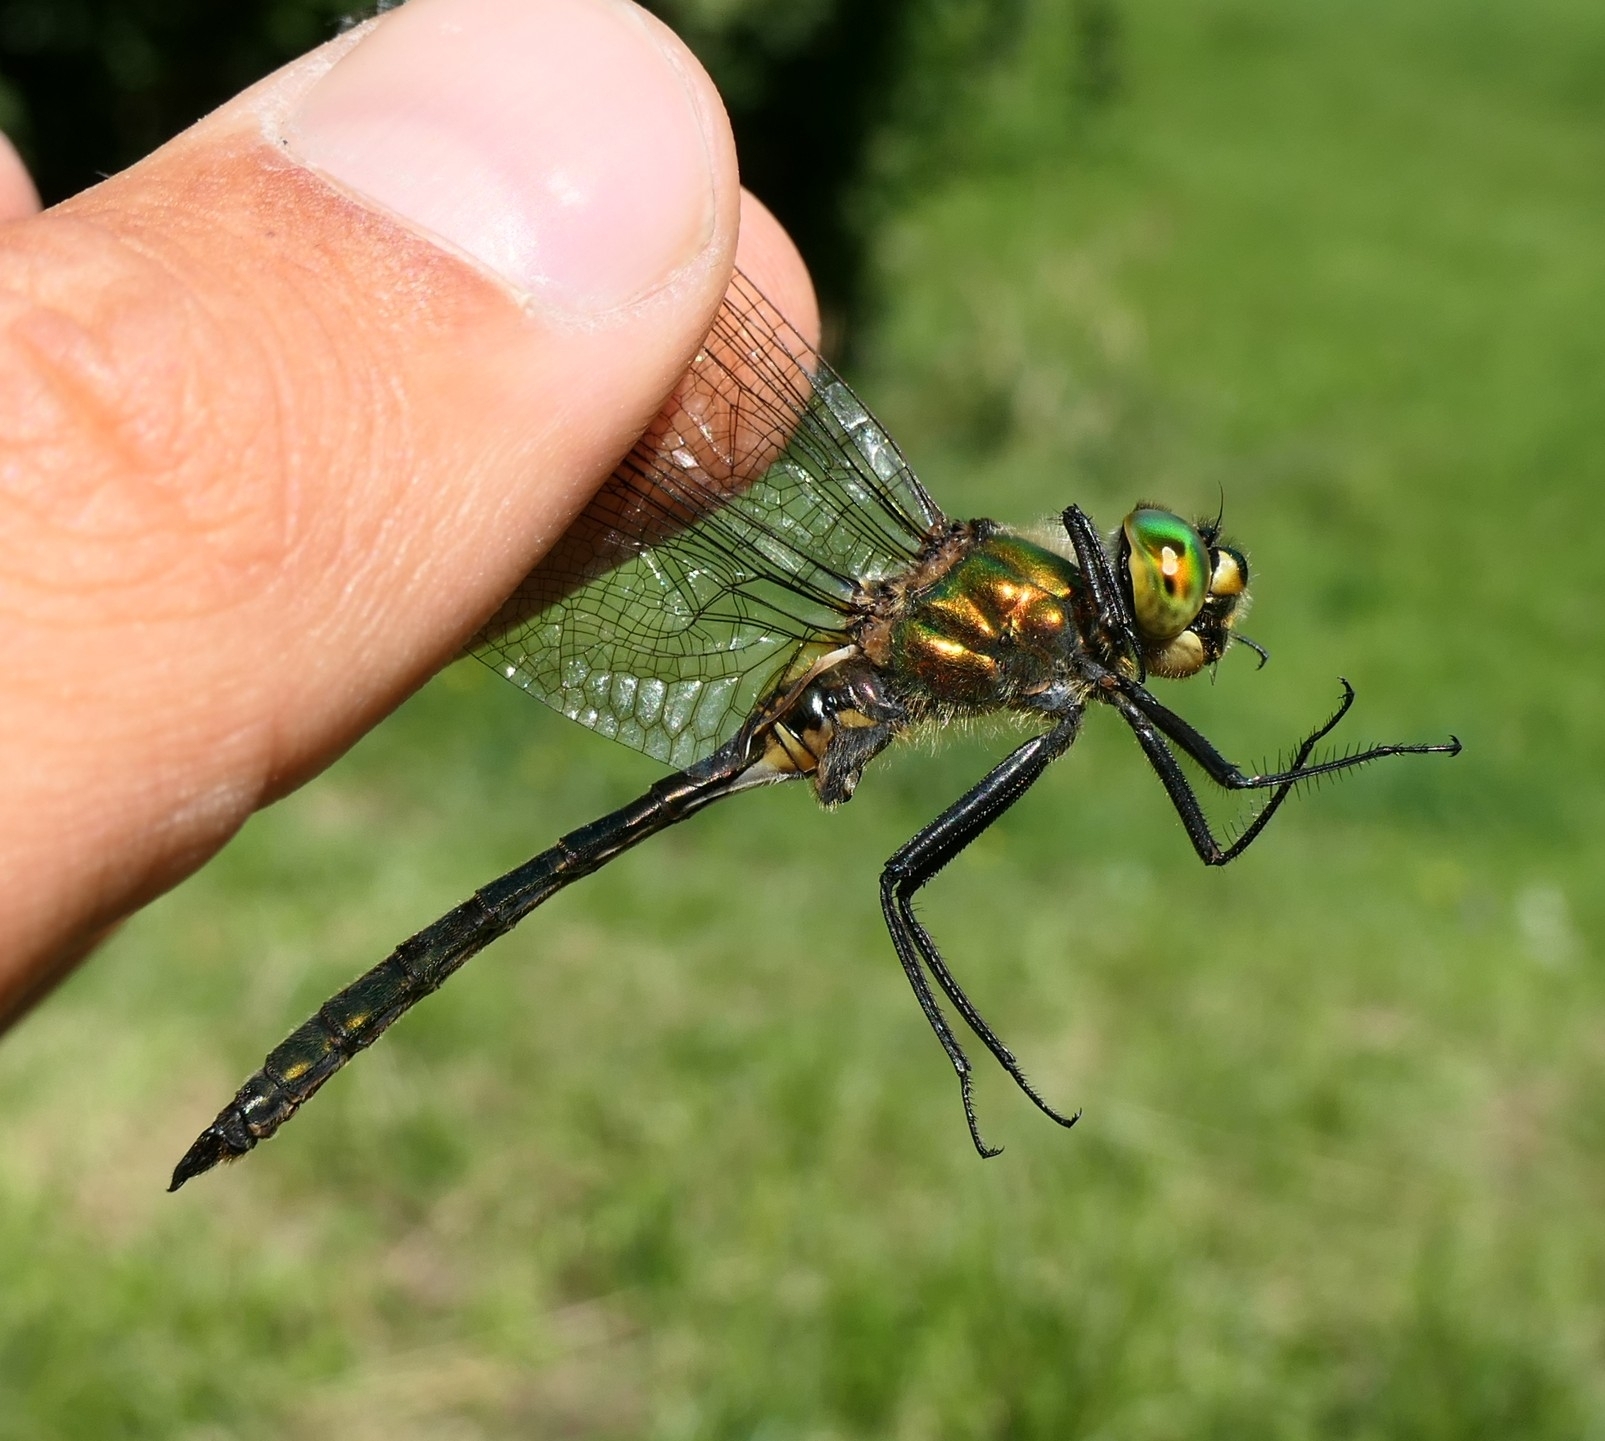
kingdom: Animalia
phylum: Arthropoda
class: Insecta
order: Odonata
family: Corduliidae
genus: Somatochlora
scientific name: Somatochlora metallica
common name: Brilliant emerald
